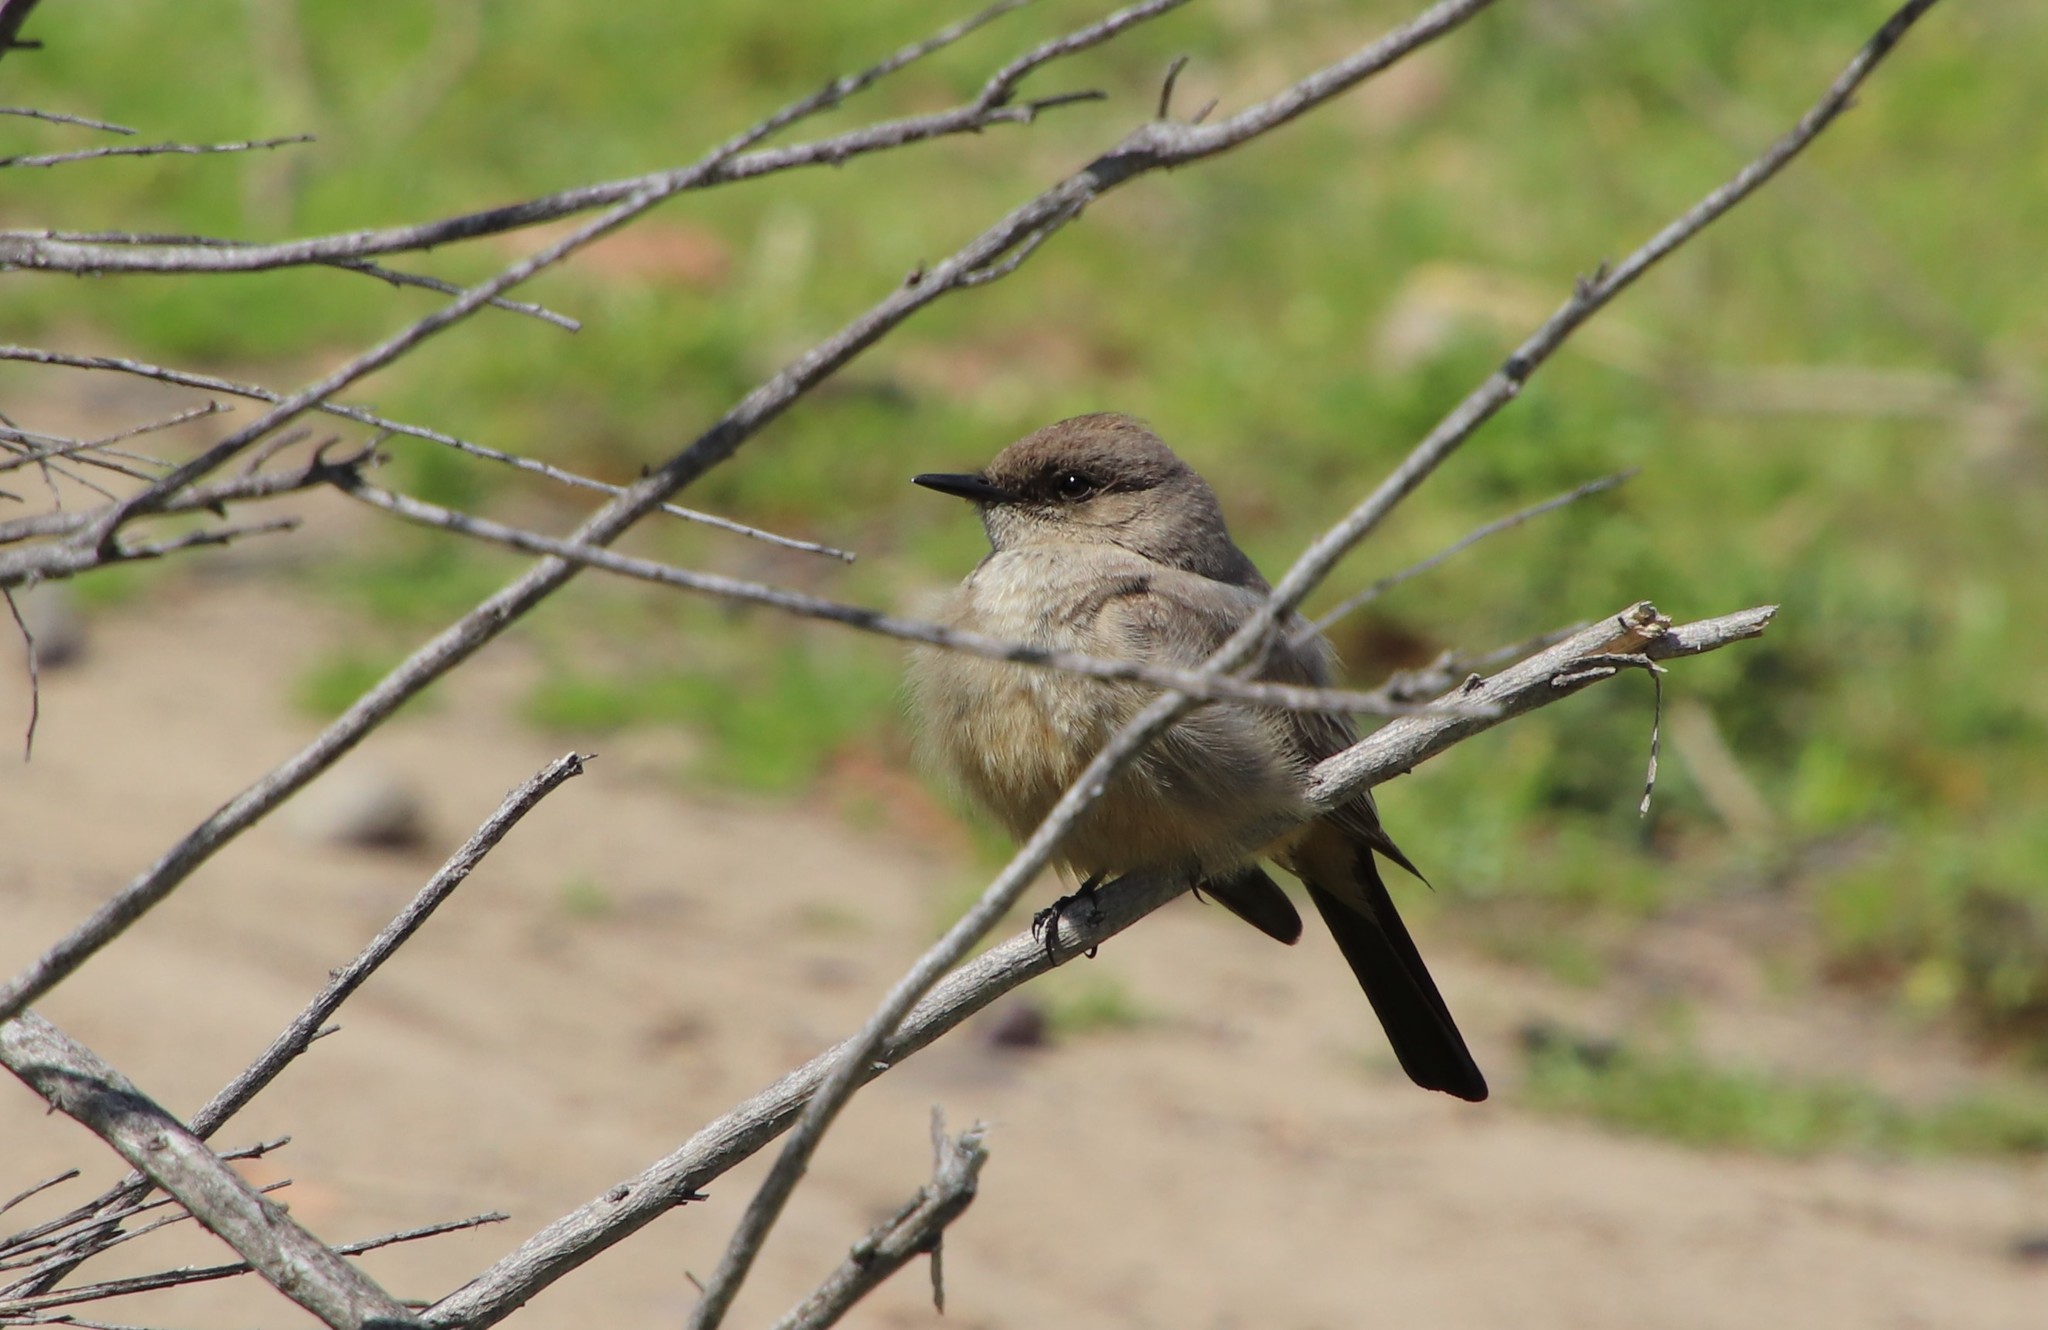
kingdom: Animalia
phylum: Chordata
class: Aves
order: Passeriformes
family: Tyrannidae
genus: Sayornis
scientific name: Sayornis saya
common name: Say's phoebe
